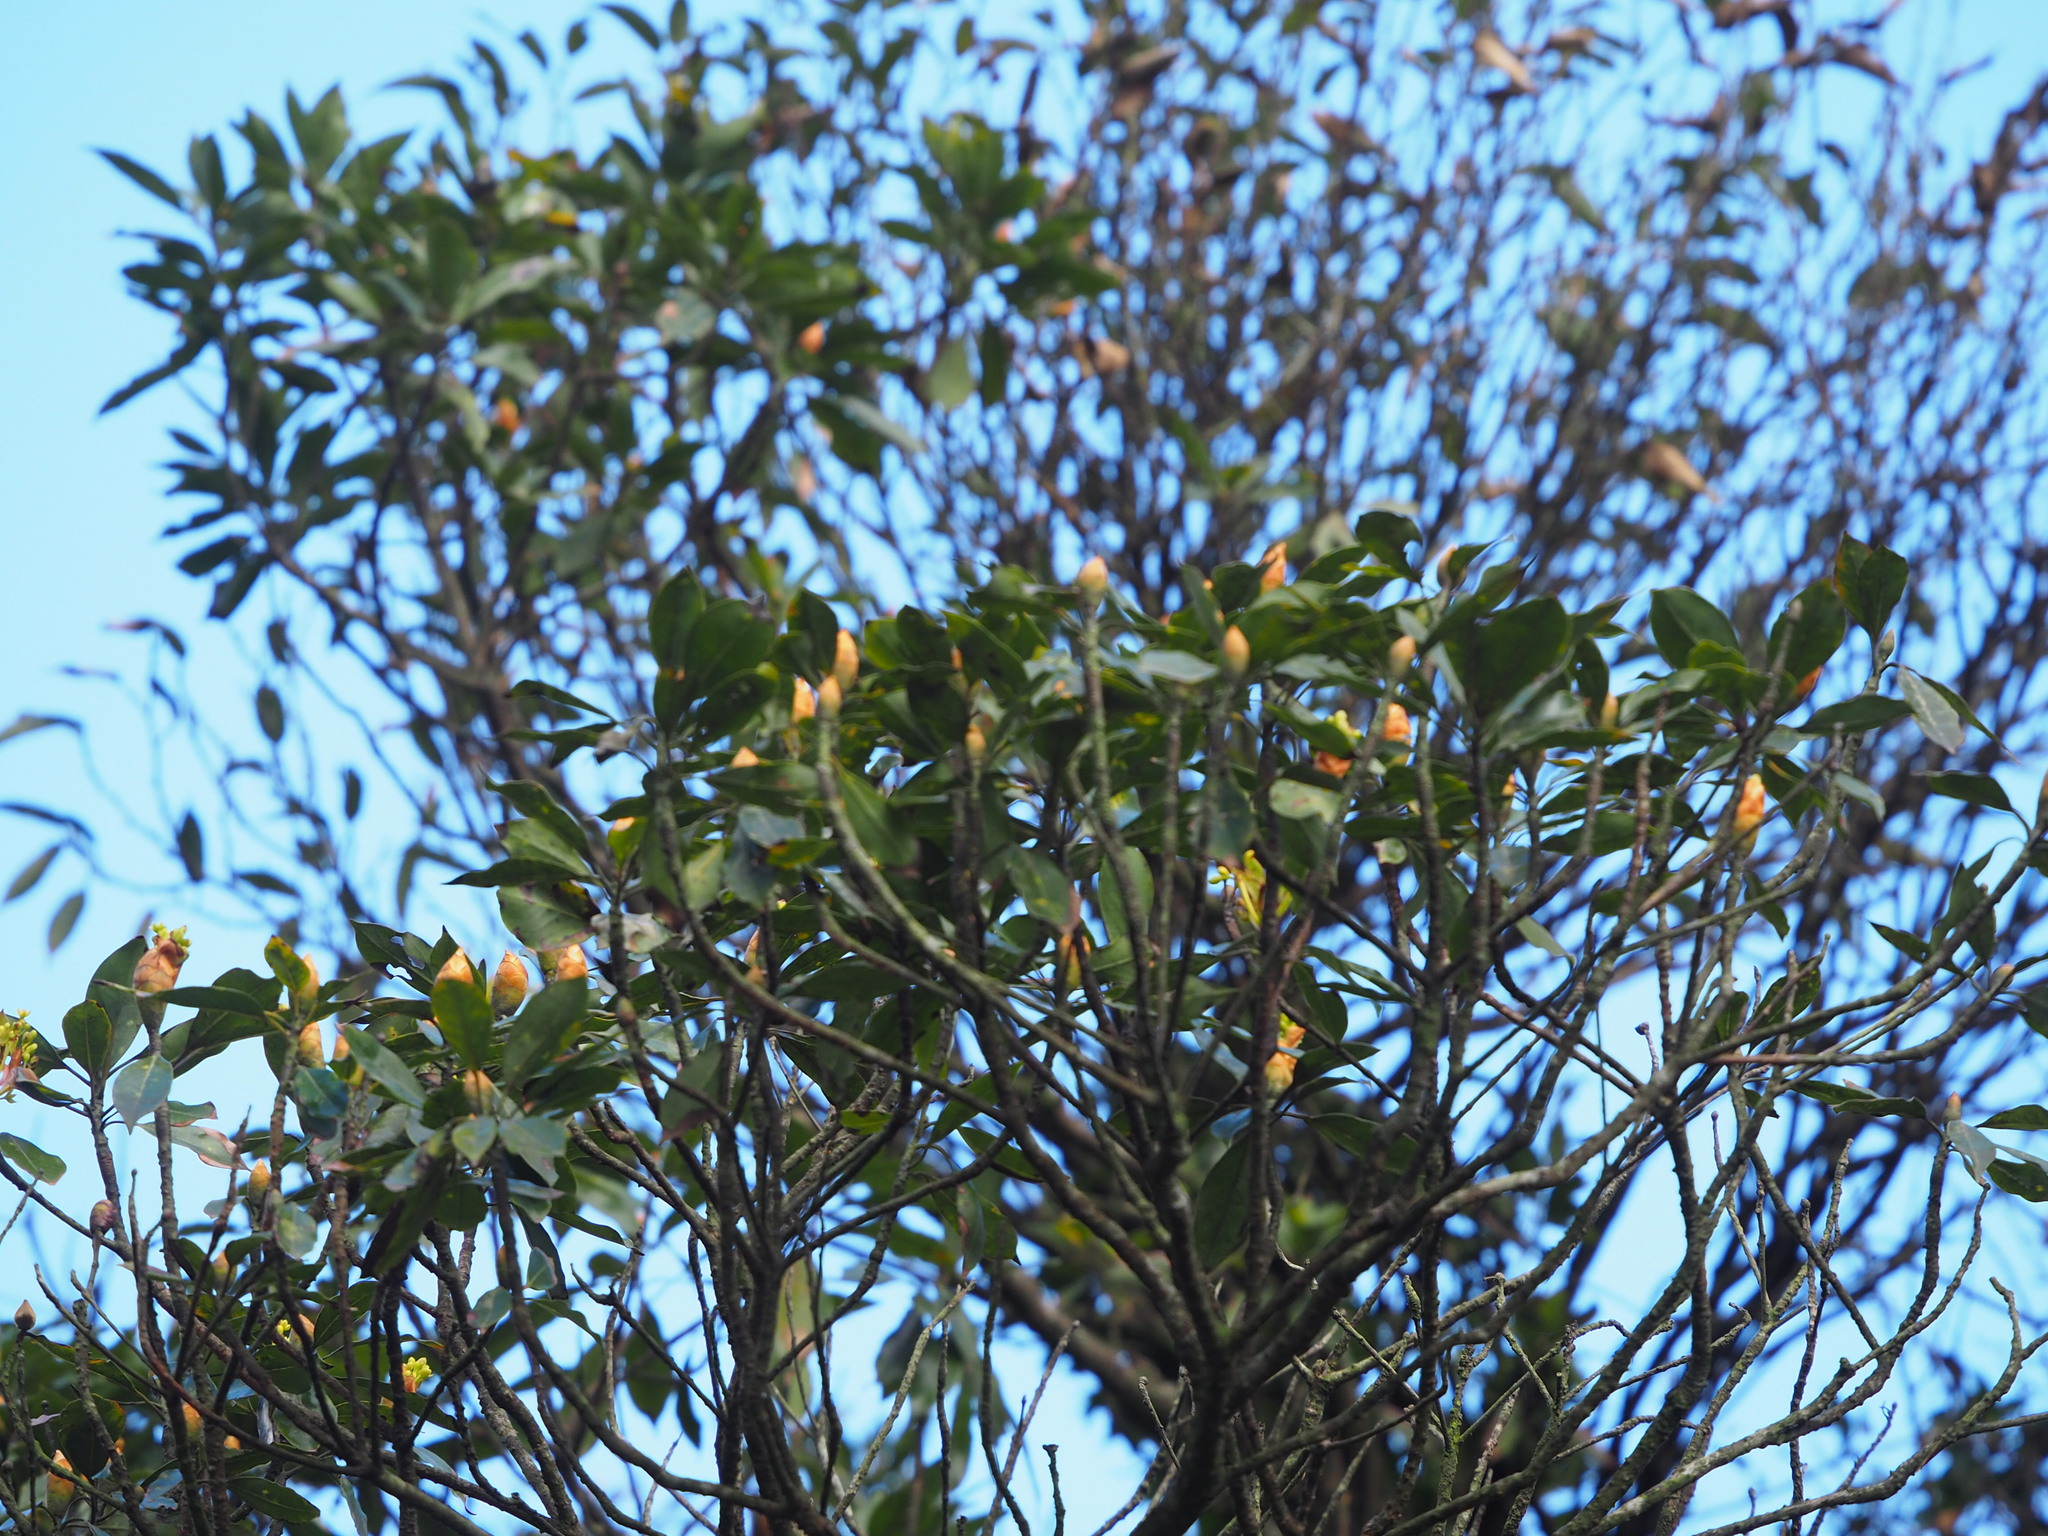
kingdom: Plantae
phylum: Tracheophyta
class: Magnoliopsida
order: Laurales
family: Lauraceae
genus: Machilus
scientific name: Machilus thunbergii
